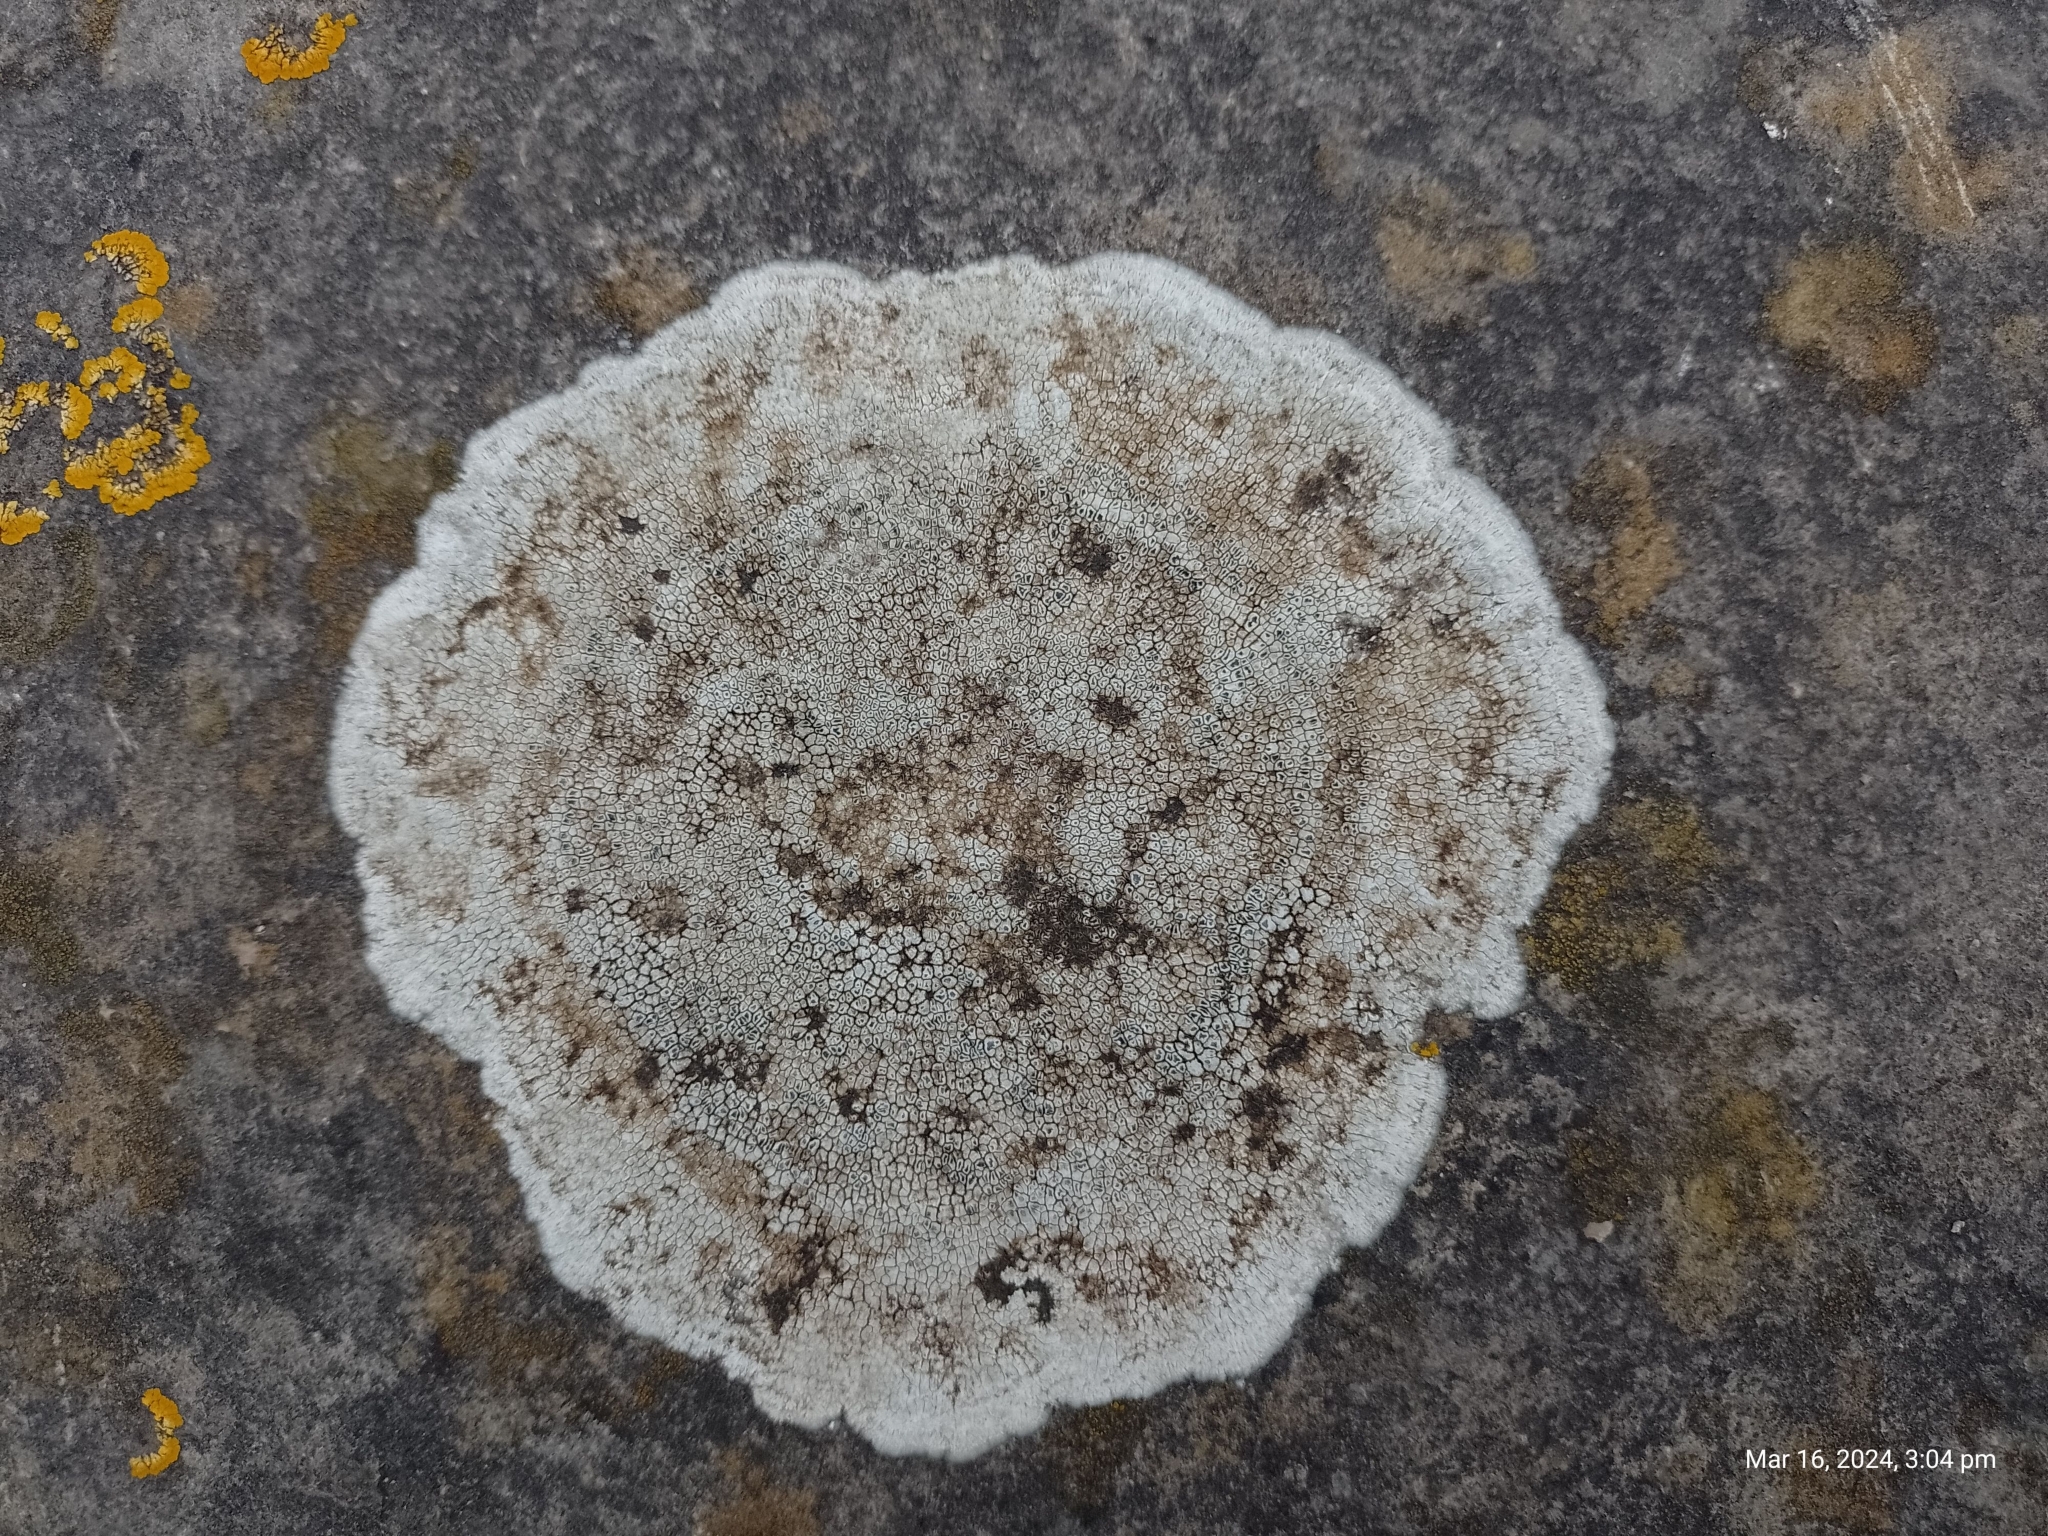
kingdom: Fungi
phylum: Ascomycota
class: Lecanoromycetes
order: Pertusariales
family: Megasporaceae
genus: Circinaria
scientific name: Circinaria calcarea
